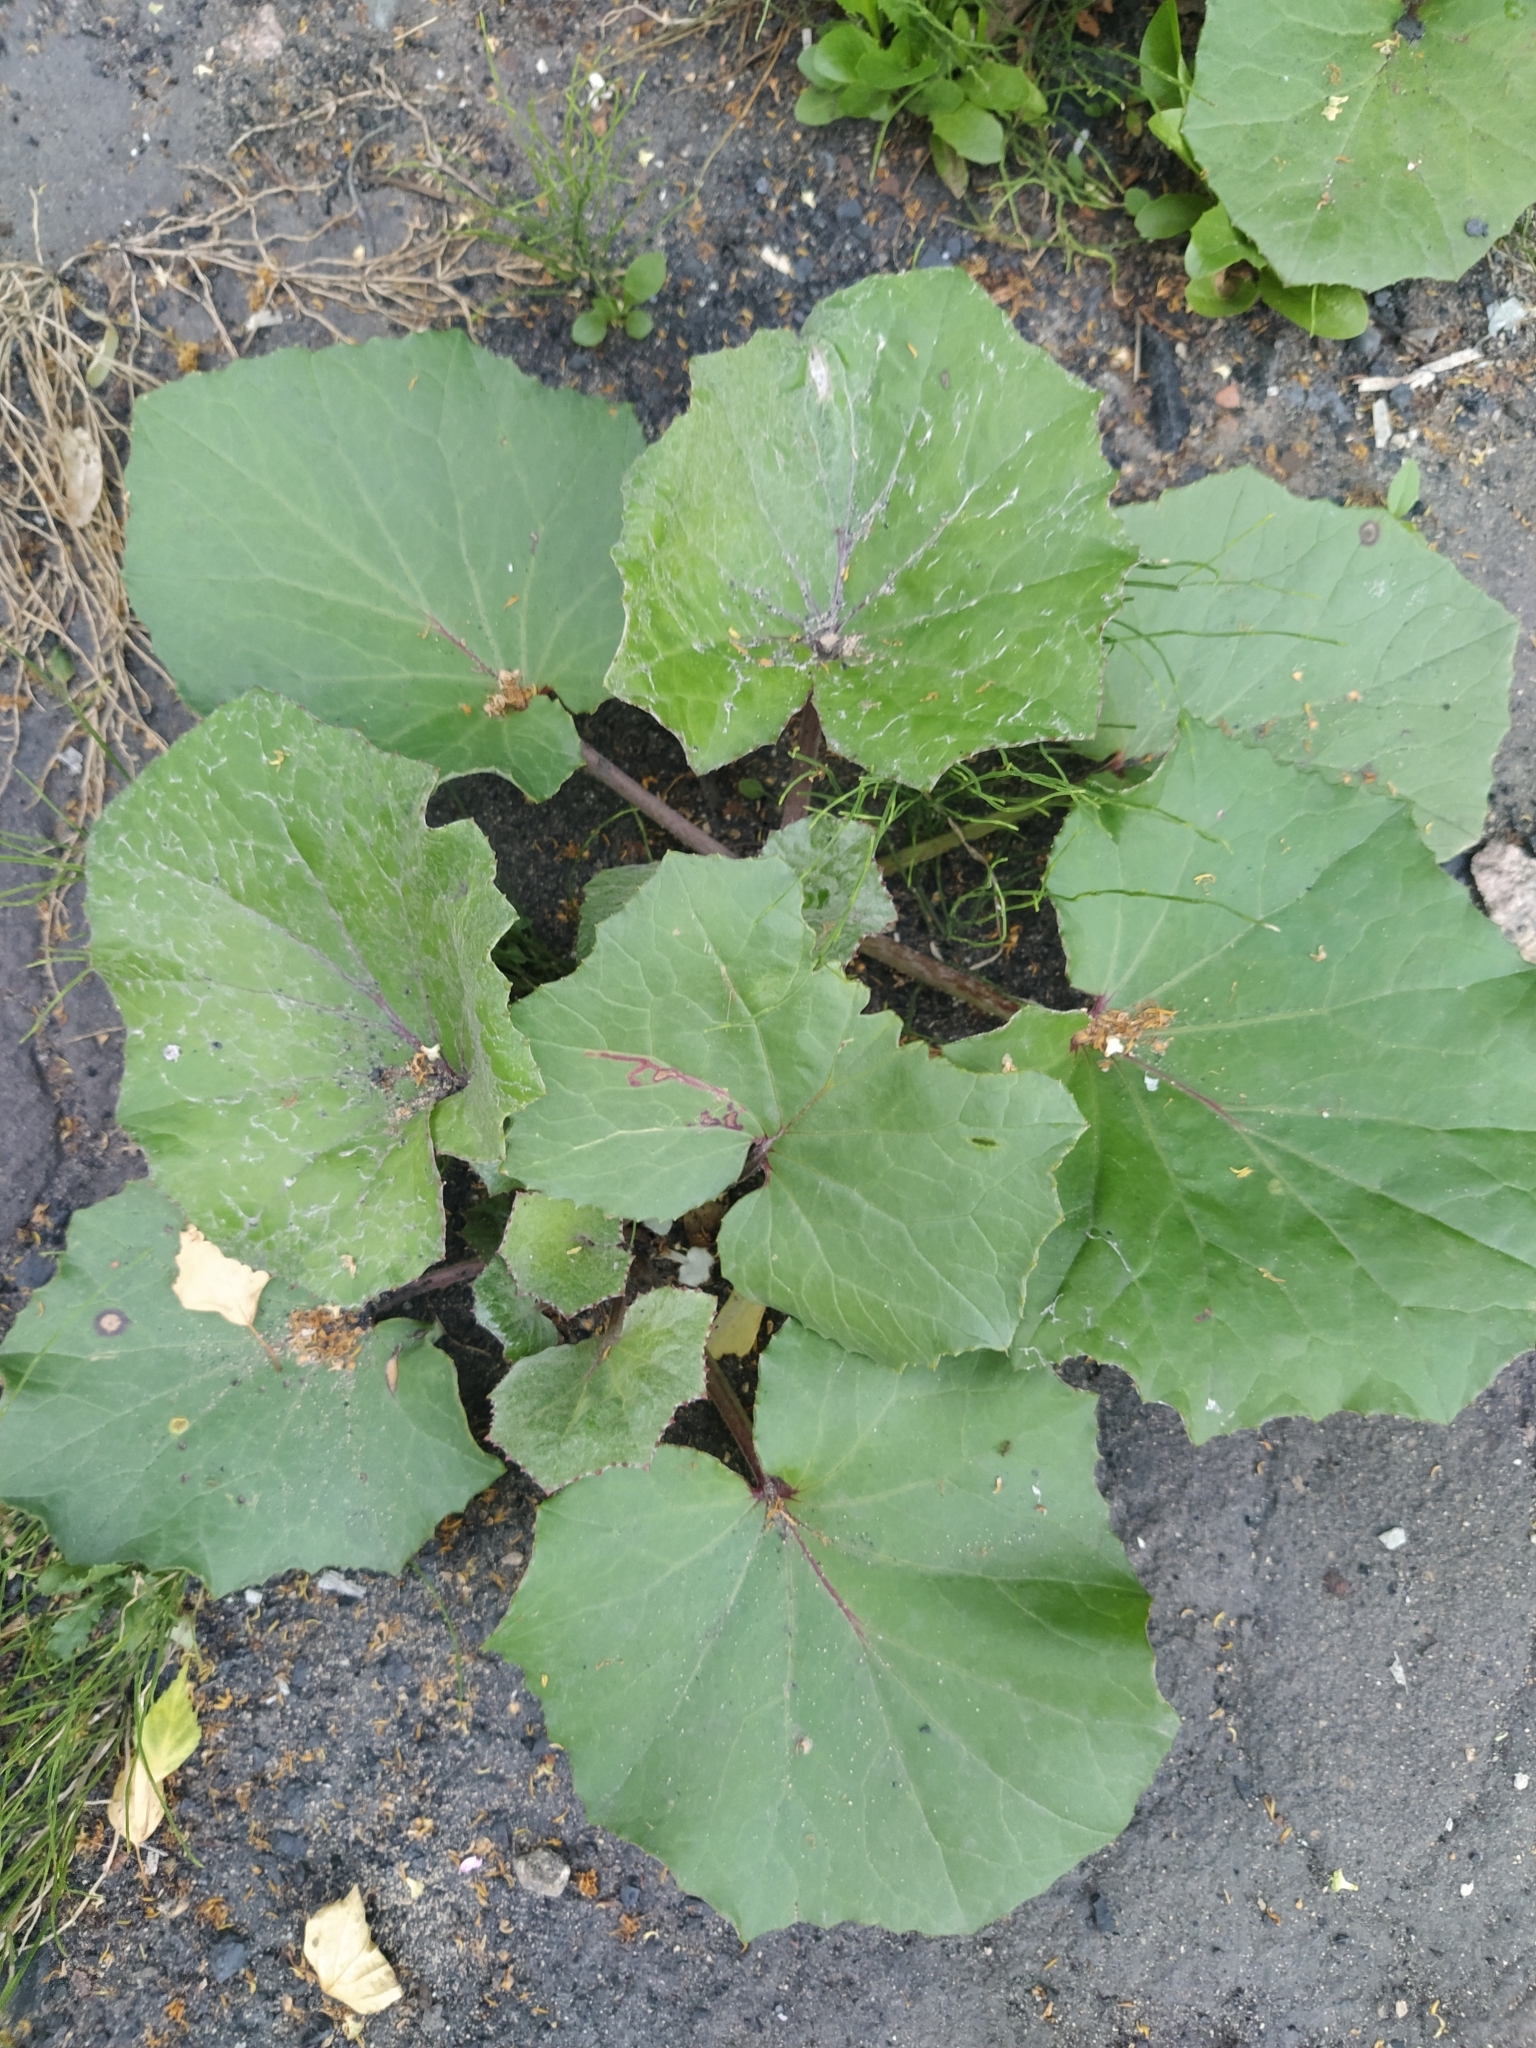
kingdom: Plantae
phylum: Tracheophyta
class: Magnoliopsida
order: Asterales
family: Asteraceae
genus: Tussilago
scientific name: Tussilago farfara
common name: Coltsfoot
